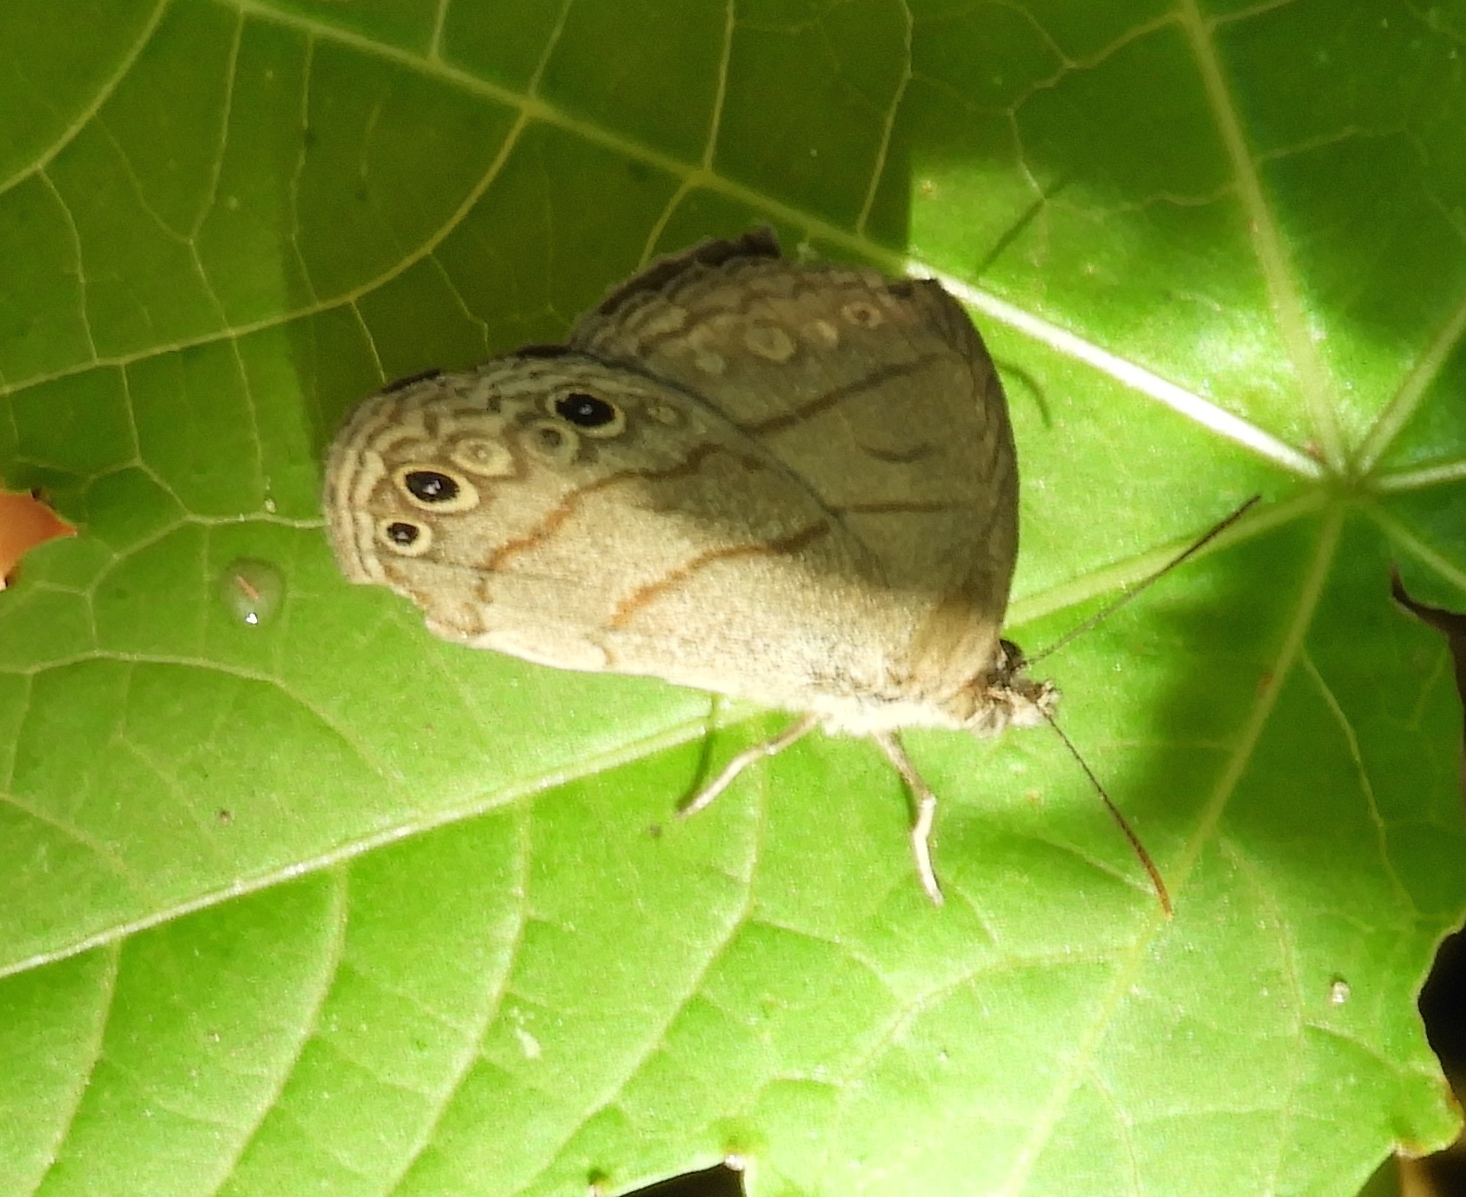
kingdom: Animalia
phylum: Arthropoda
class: Insecta
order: Lepidoptera
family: Nymphalidae
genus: Hermeuptychia
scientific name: Hermeuptychia hermes
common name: Hermes satyr
